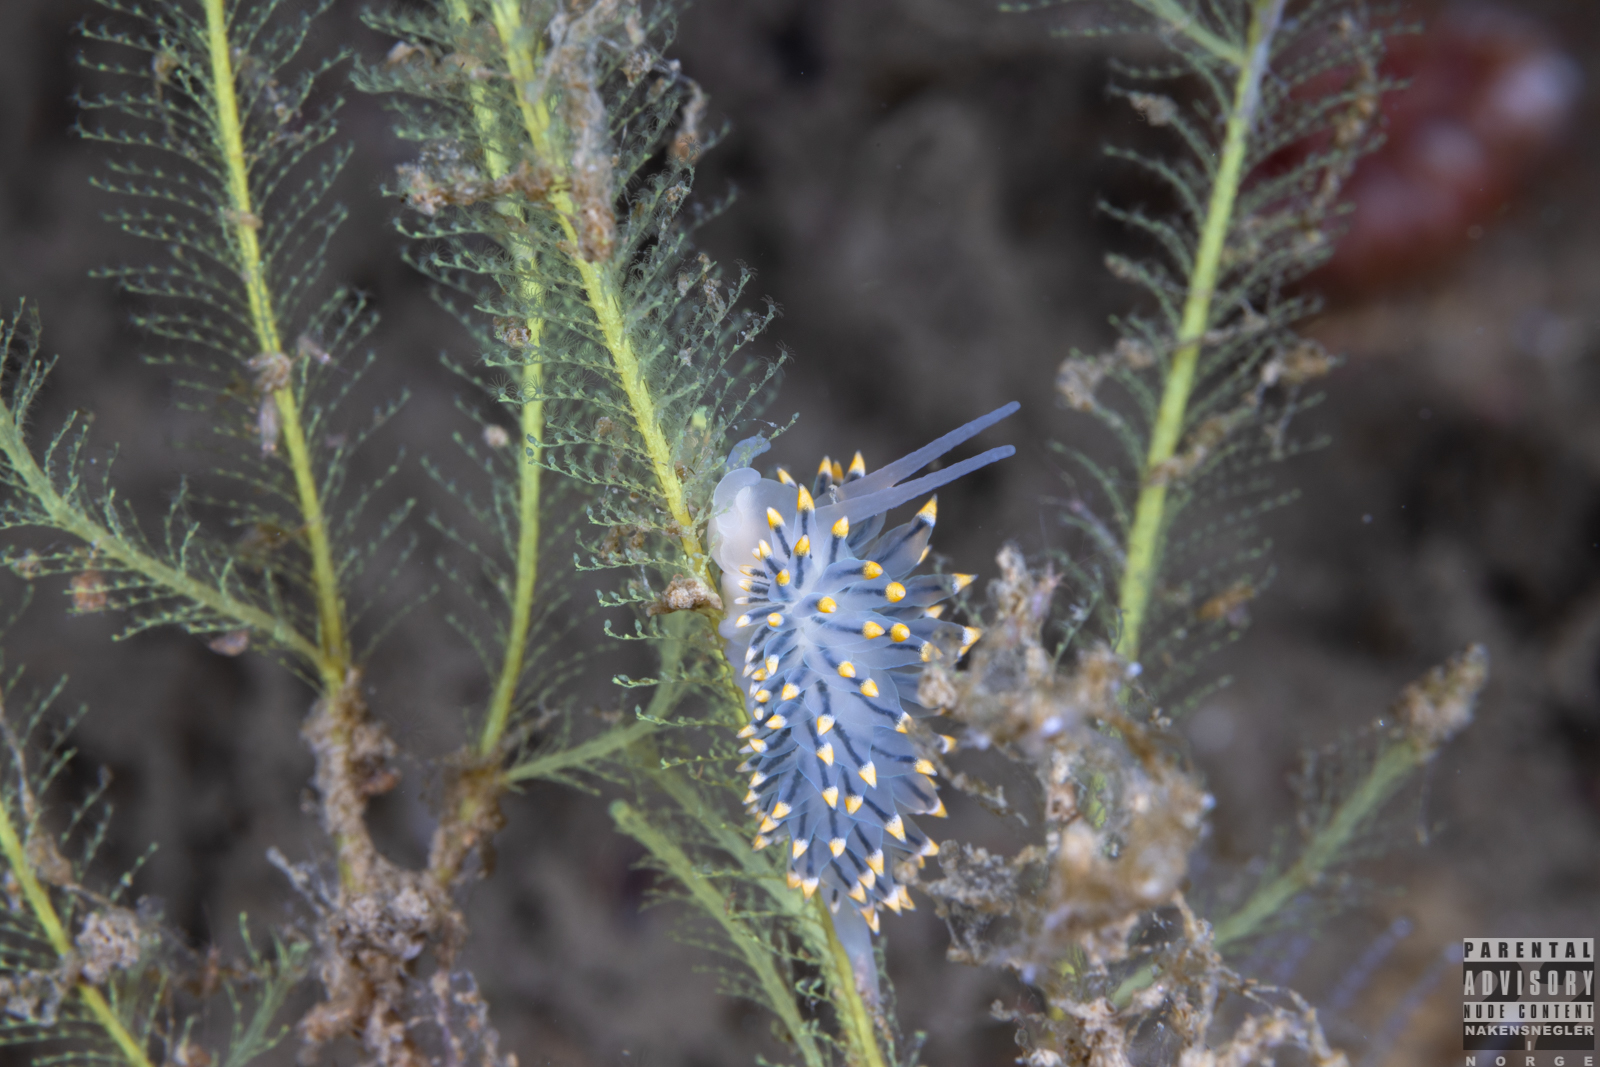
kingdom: Animalia
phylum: Mollusca
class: Gastropoda
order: Nudibranchia
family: Eubranchidae
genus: Eubranchus
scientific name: Eubranchus tricolor
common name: Painted balloon aeolis
